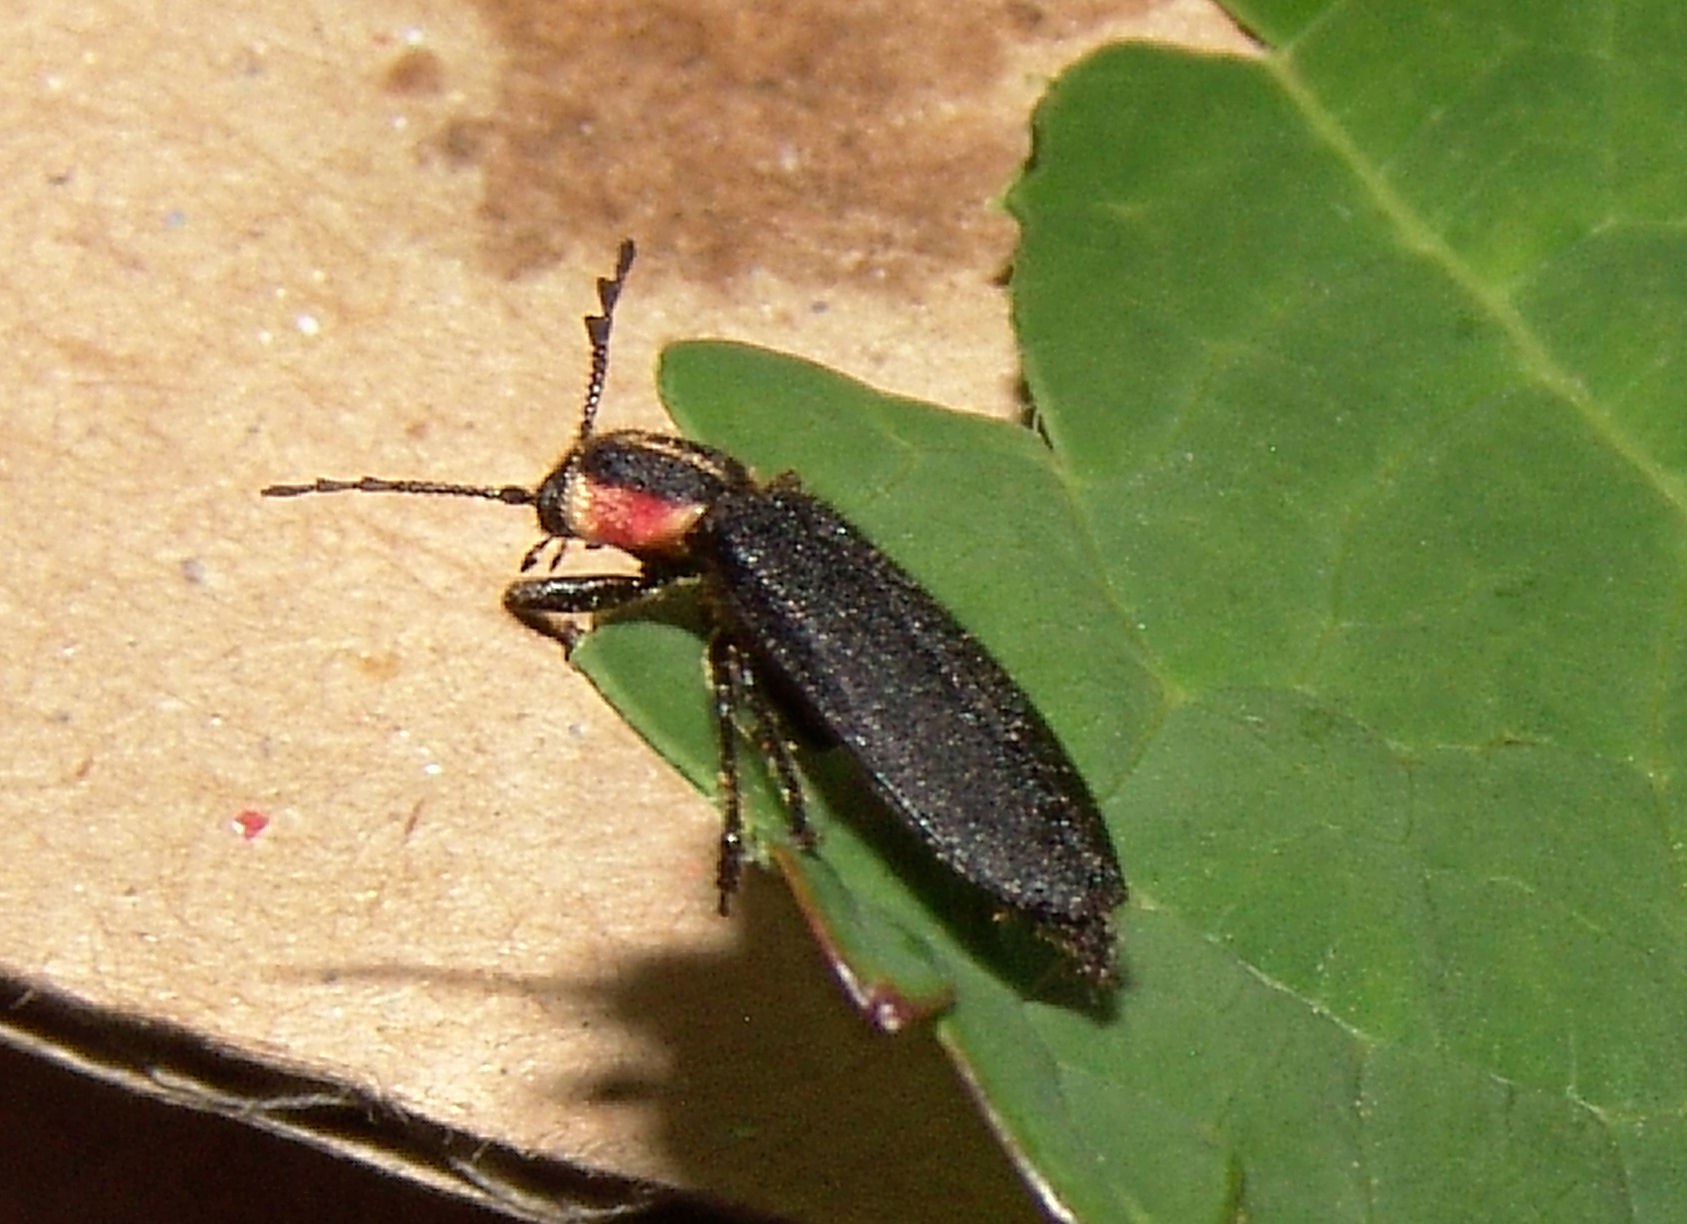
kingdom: Animalia
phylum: Arthropoda
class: Insecta
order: Coleoptera
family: Cleridae
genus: Chariessa
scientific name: Chariessa pilosa
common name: Pilose checkered beetle
